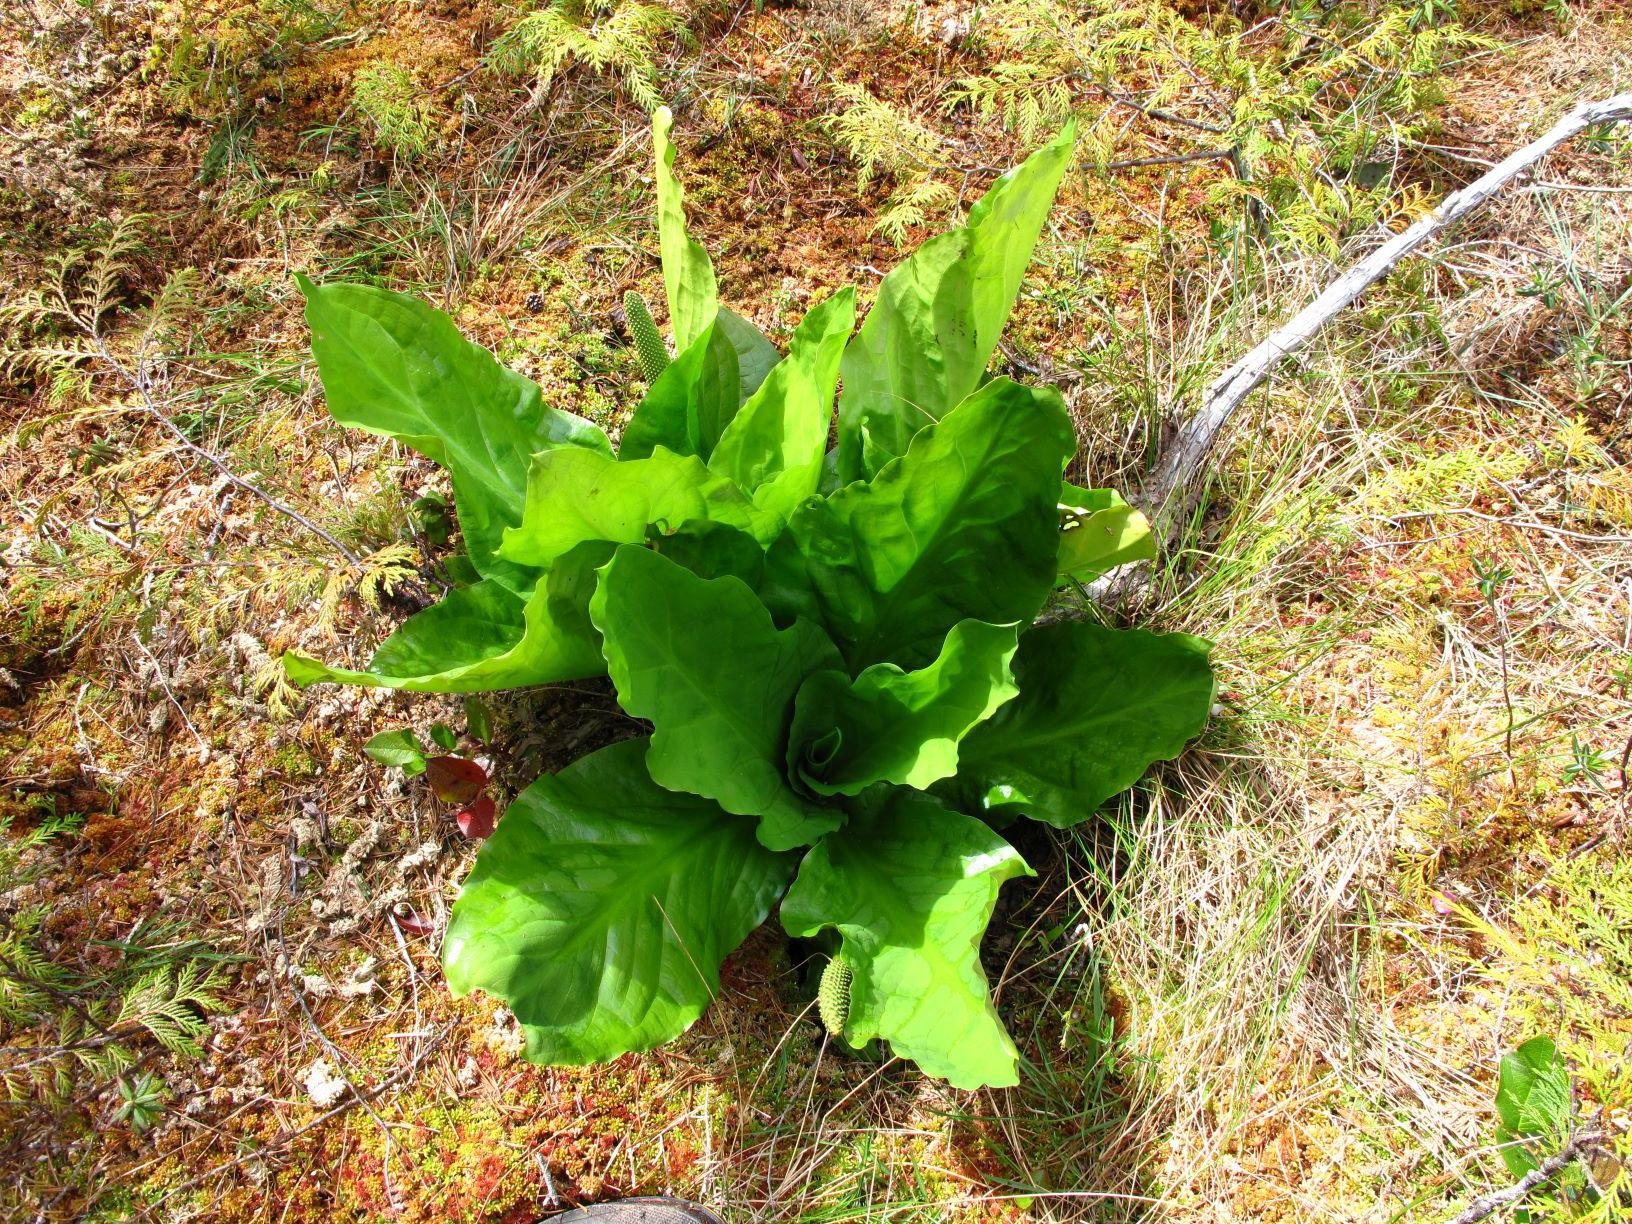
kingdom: Plantae
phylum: Tracheophyta
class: Liliopsida
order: Alismatales
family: Araceae
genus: Lysichiton
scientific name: Lysichiton americanus
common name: American skunk cabbage
